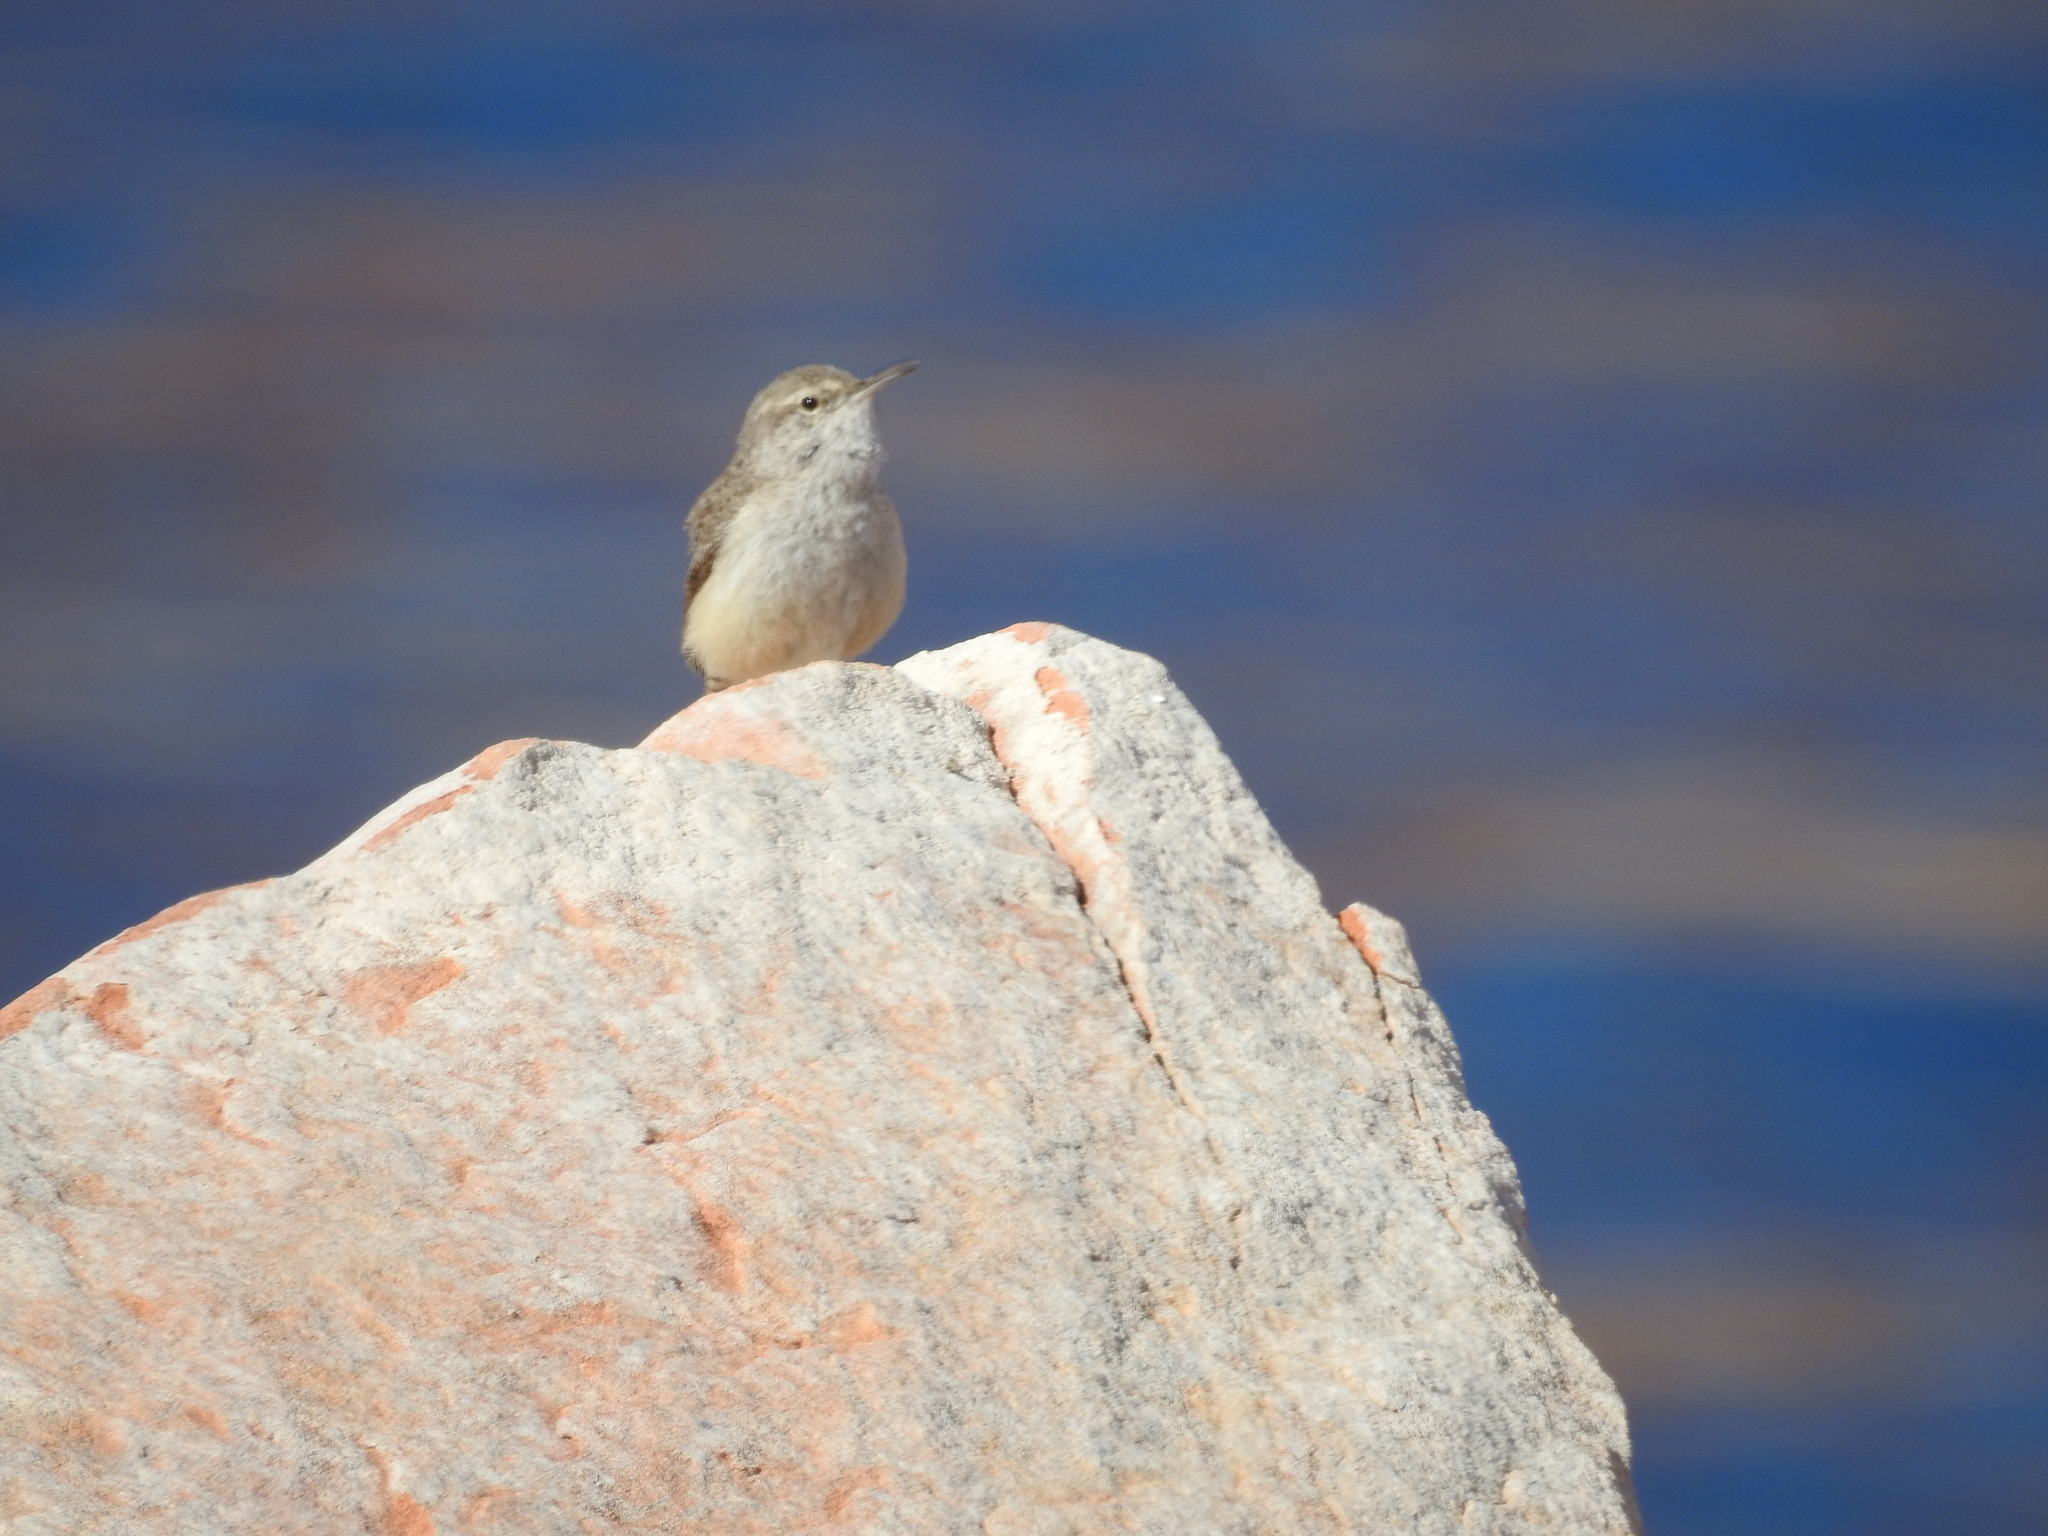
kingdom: Animalia
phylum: Chordata
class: Aves
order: Passeriformes
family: Troglodytidae
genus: Salpinctes
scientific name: Salpinctes obsoletus
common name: Rock wren
